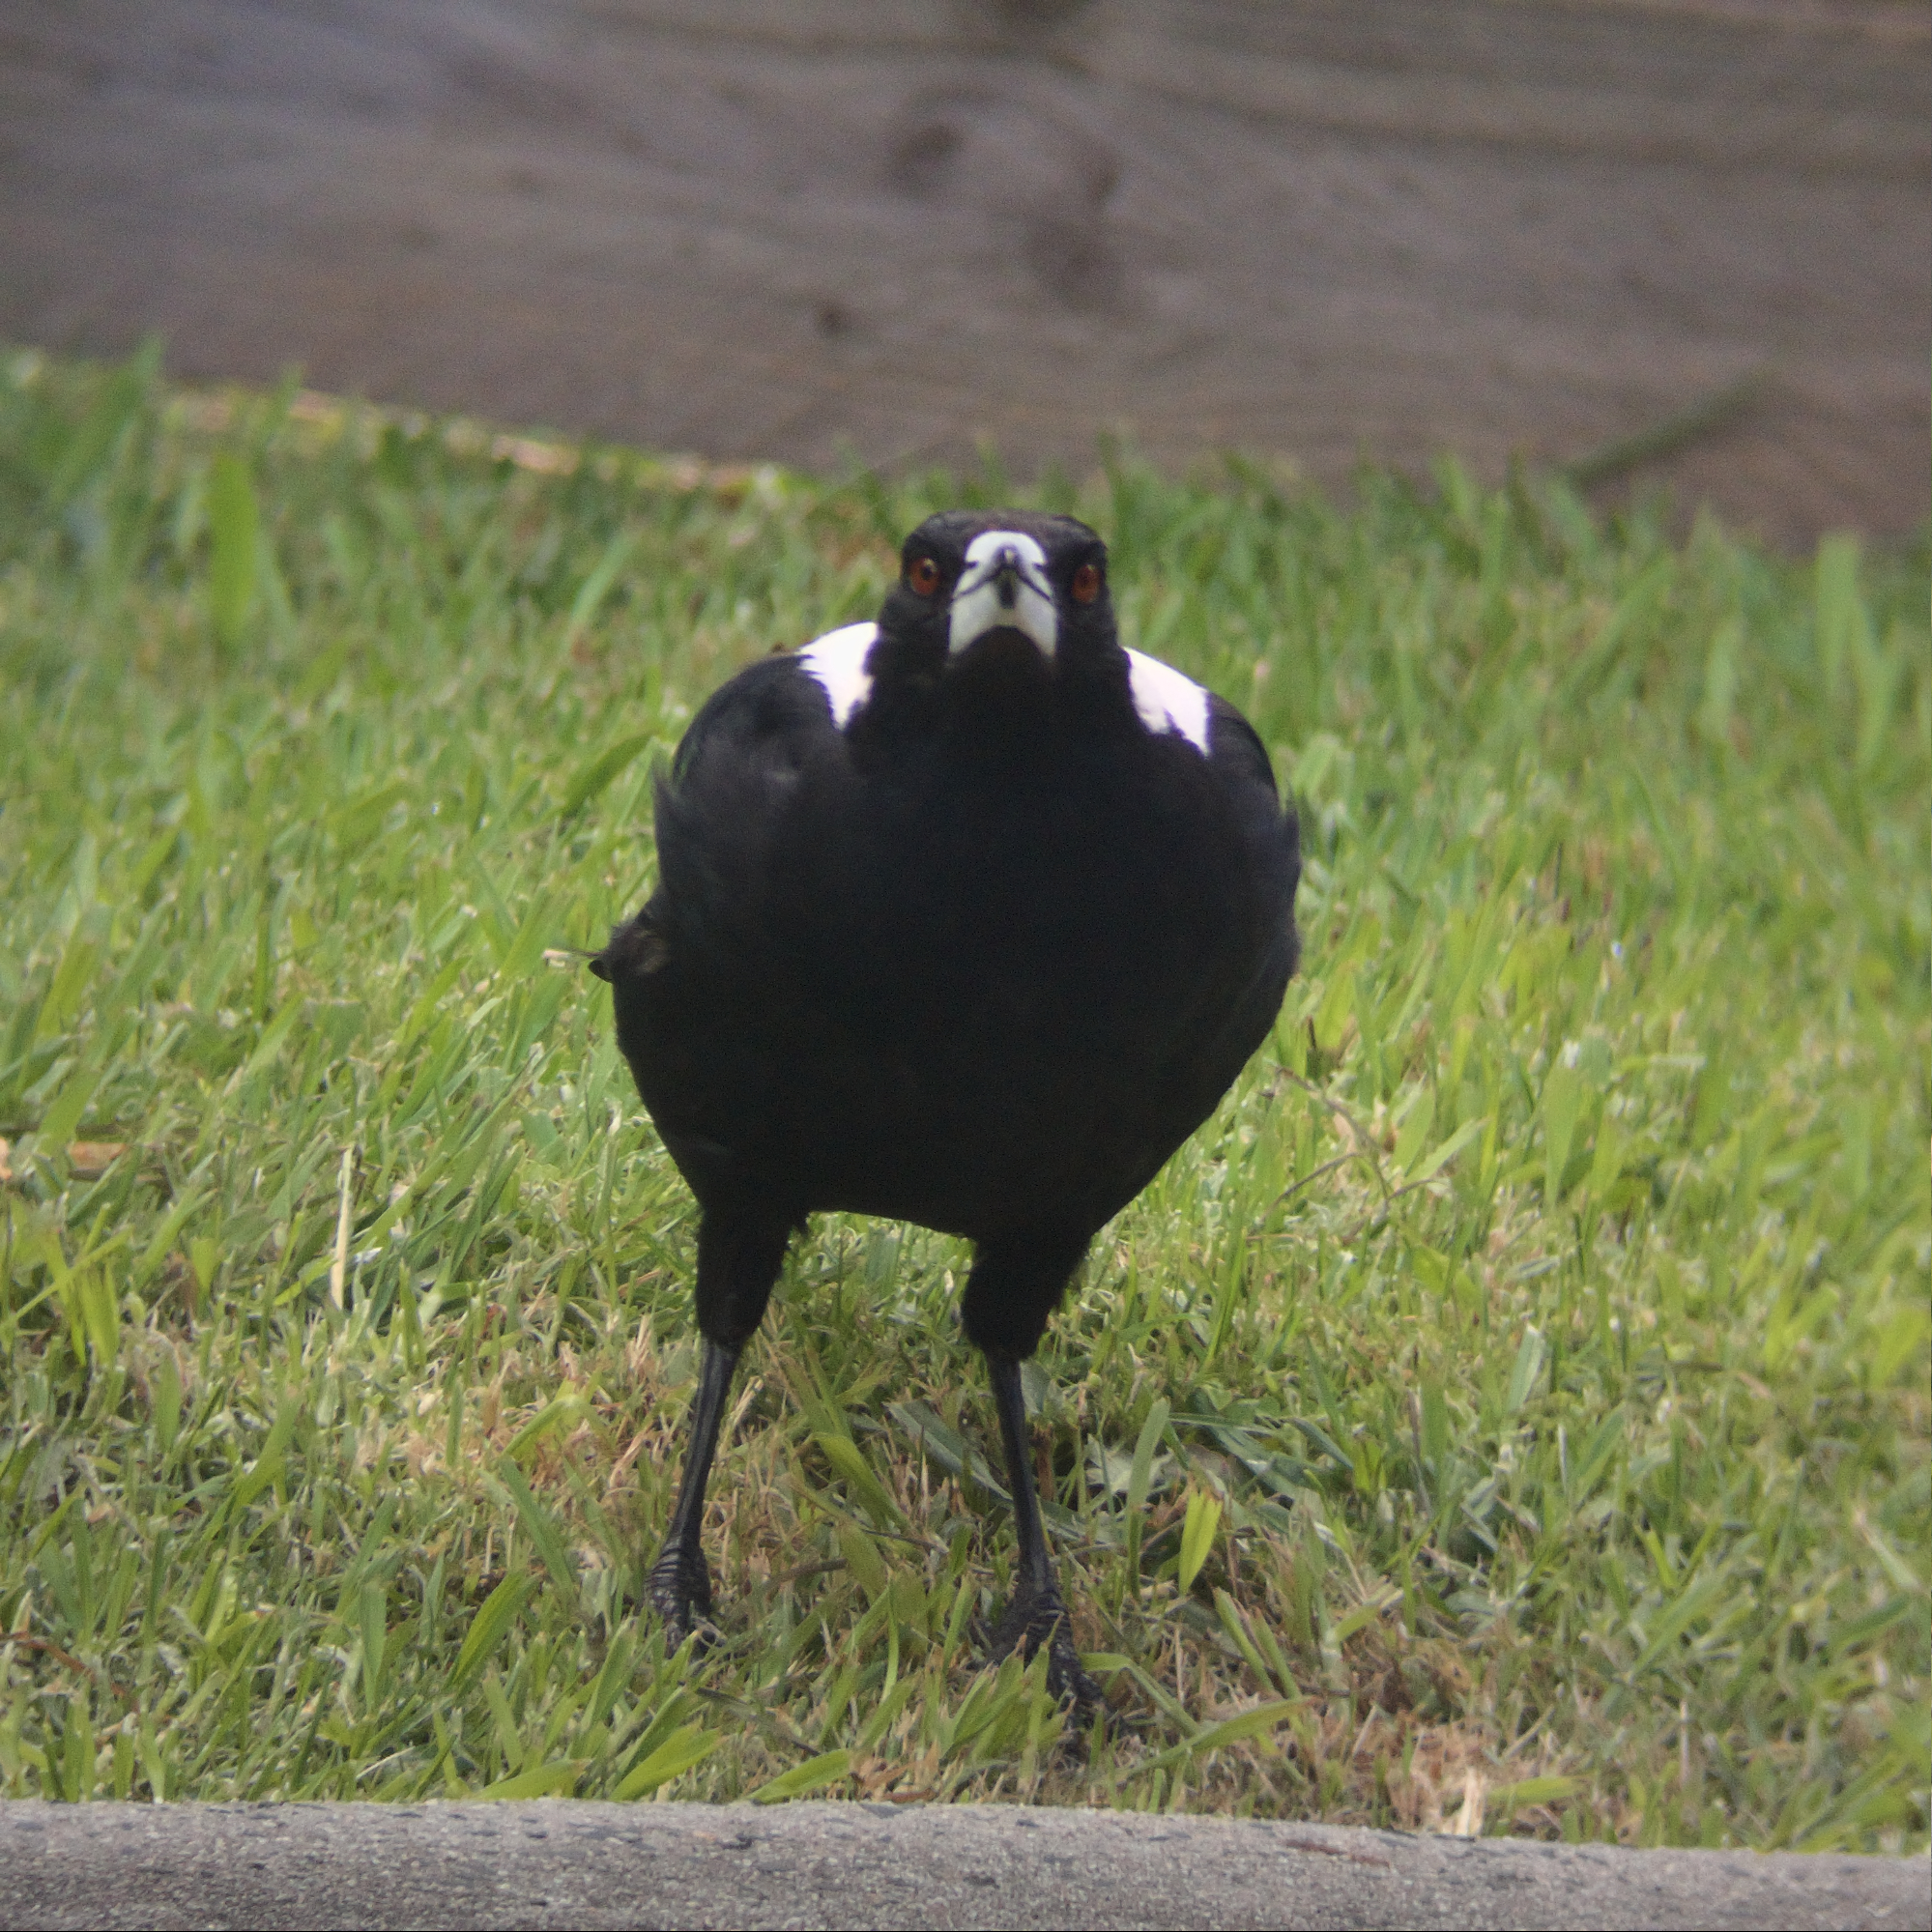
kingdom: Animalia
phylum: Chordata
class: Aves
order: Passeriformes
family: Cracticidae
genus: Gymnorhina
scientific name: Gymnorhina tibicen
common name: Australian magpie
